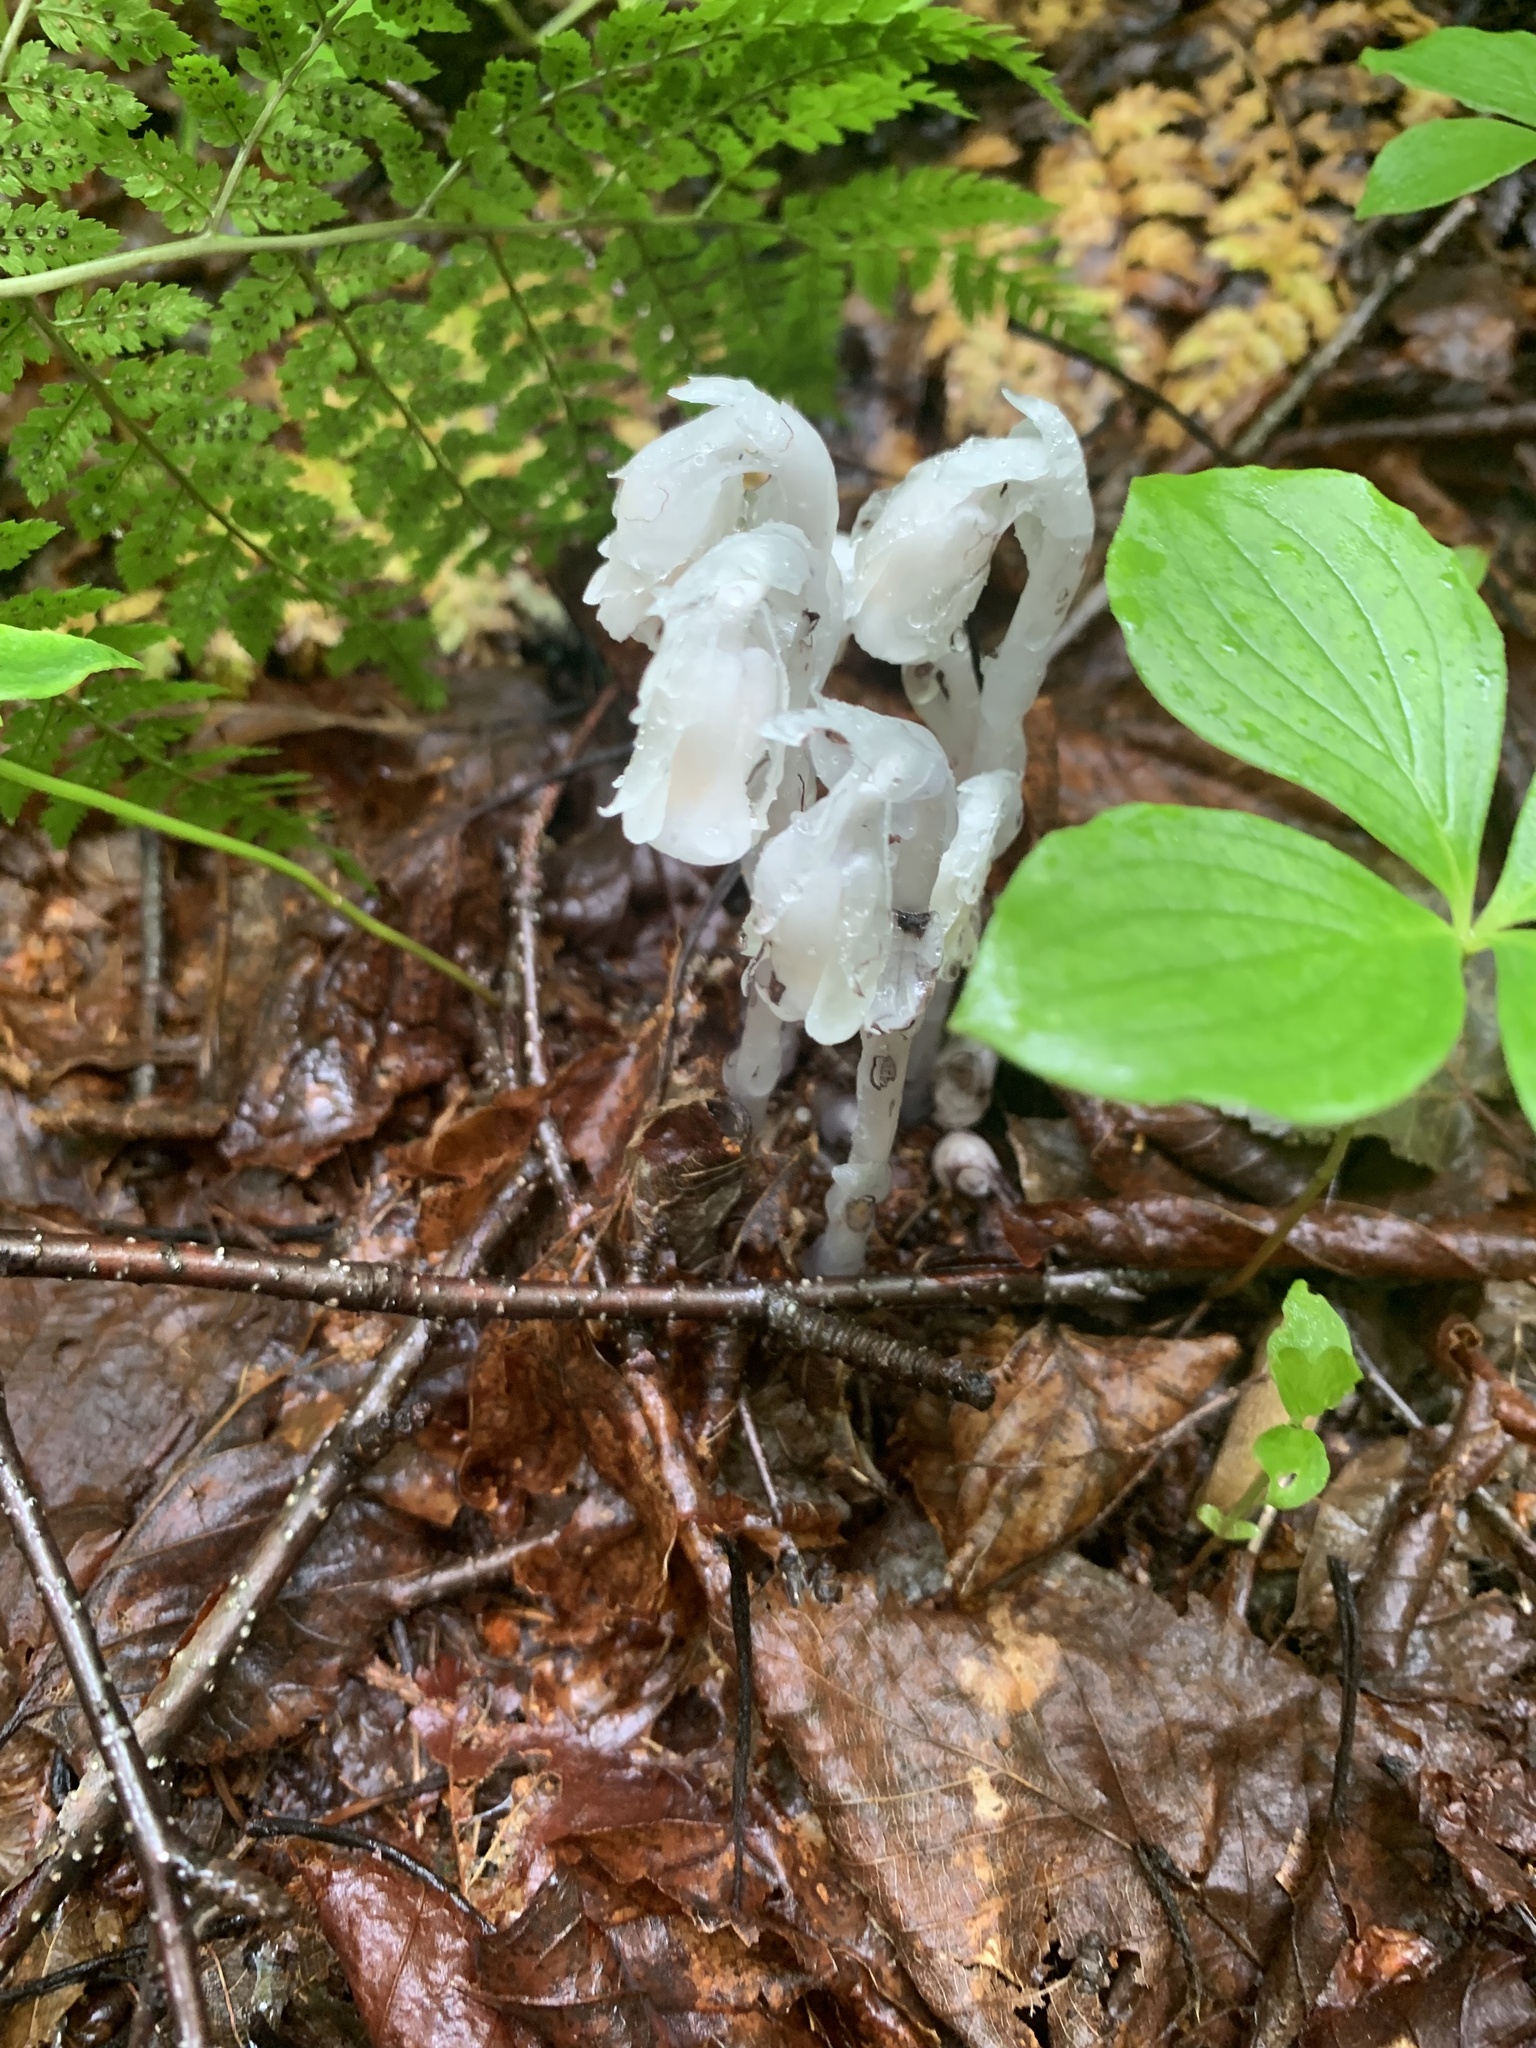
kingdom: Plantae
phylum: Tracheophyta
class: Magnoliopsida
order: Ericales
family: Ericaceae
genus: Monotropa
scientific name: Monotropa uniflora
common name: Convulsion root
